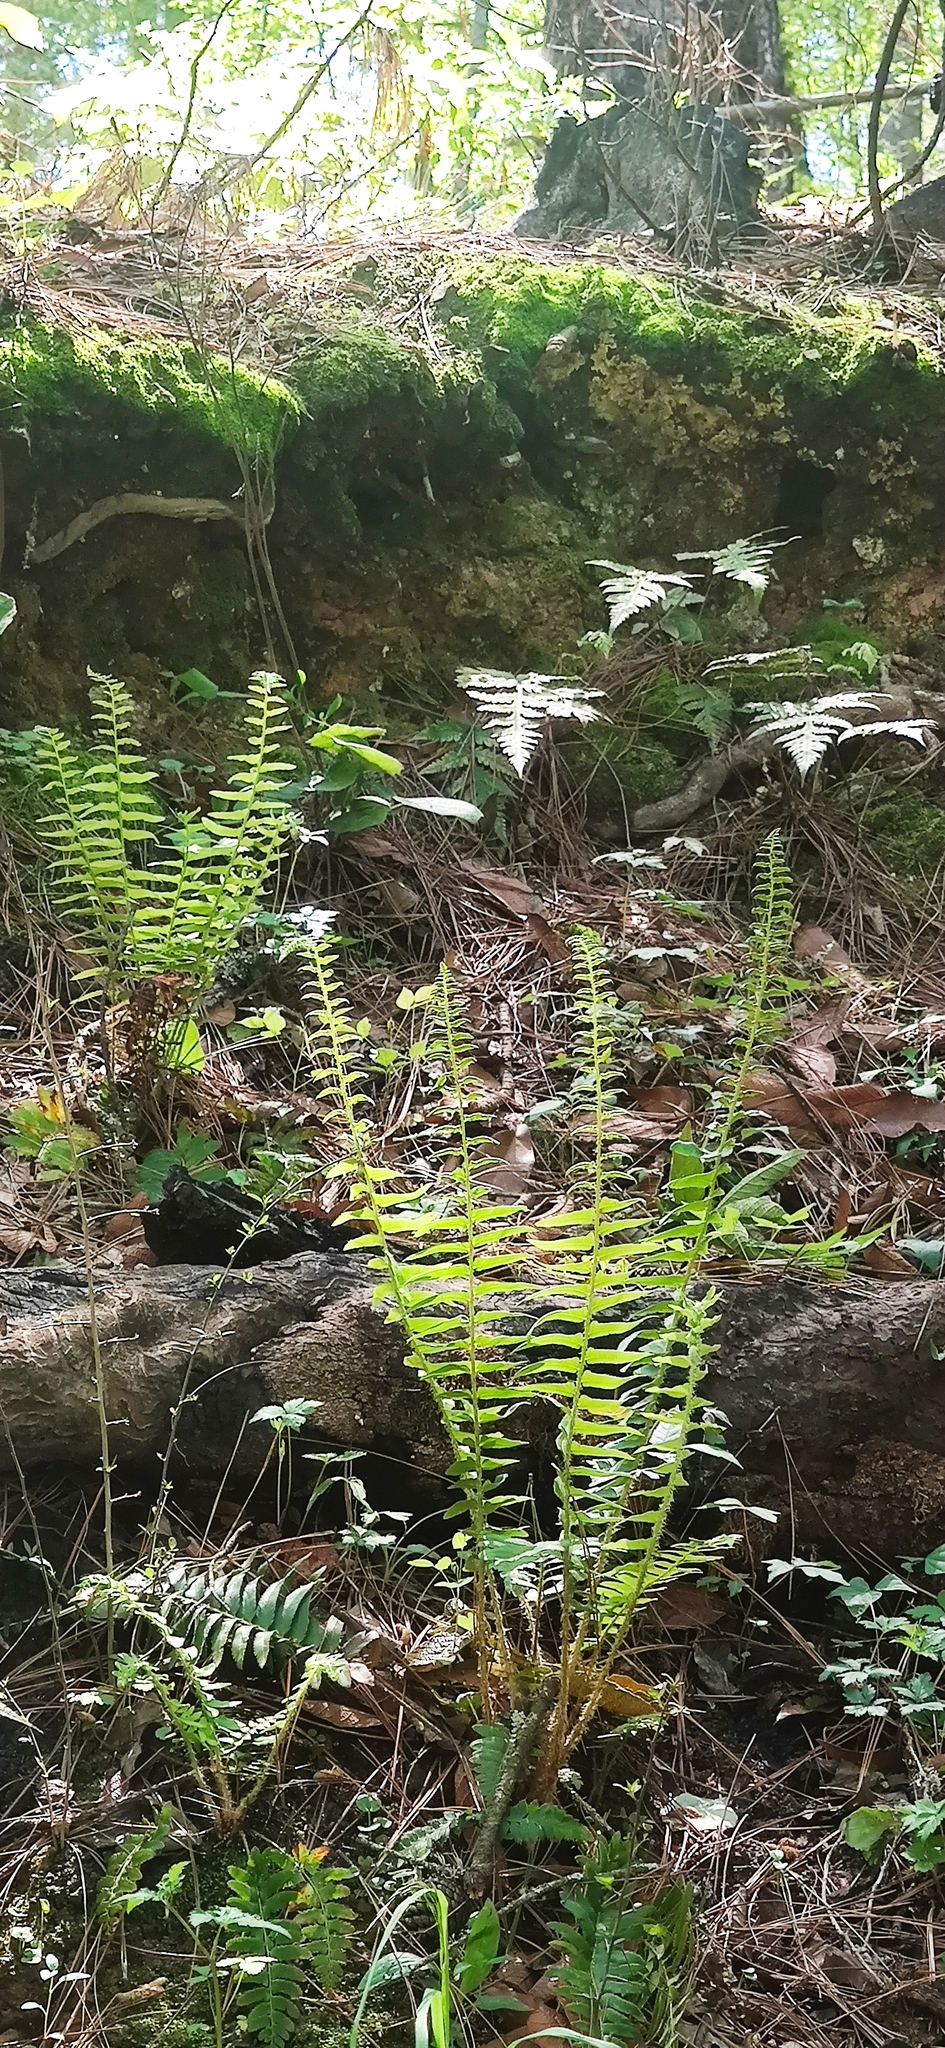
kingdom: Plantae
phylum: Tracheophyta
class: Polypodiopsida
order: Polypodiales
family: Dryopteridaceae
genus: Polystichum
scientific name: Polystichum acrostichoides
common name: Christmas fern
